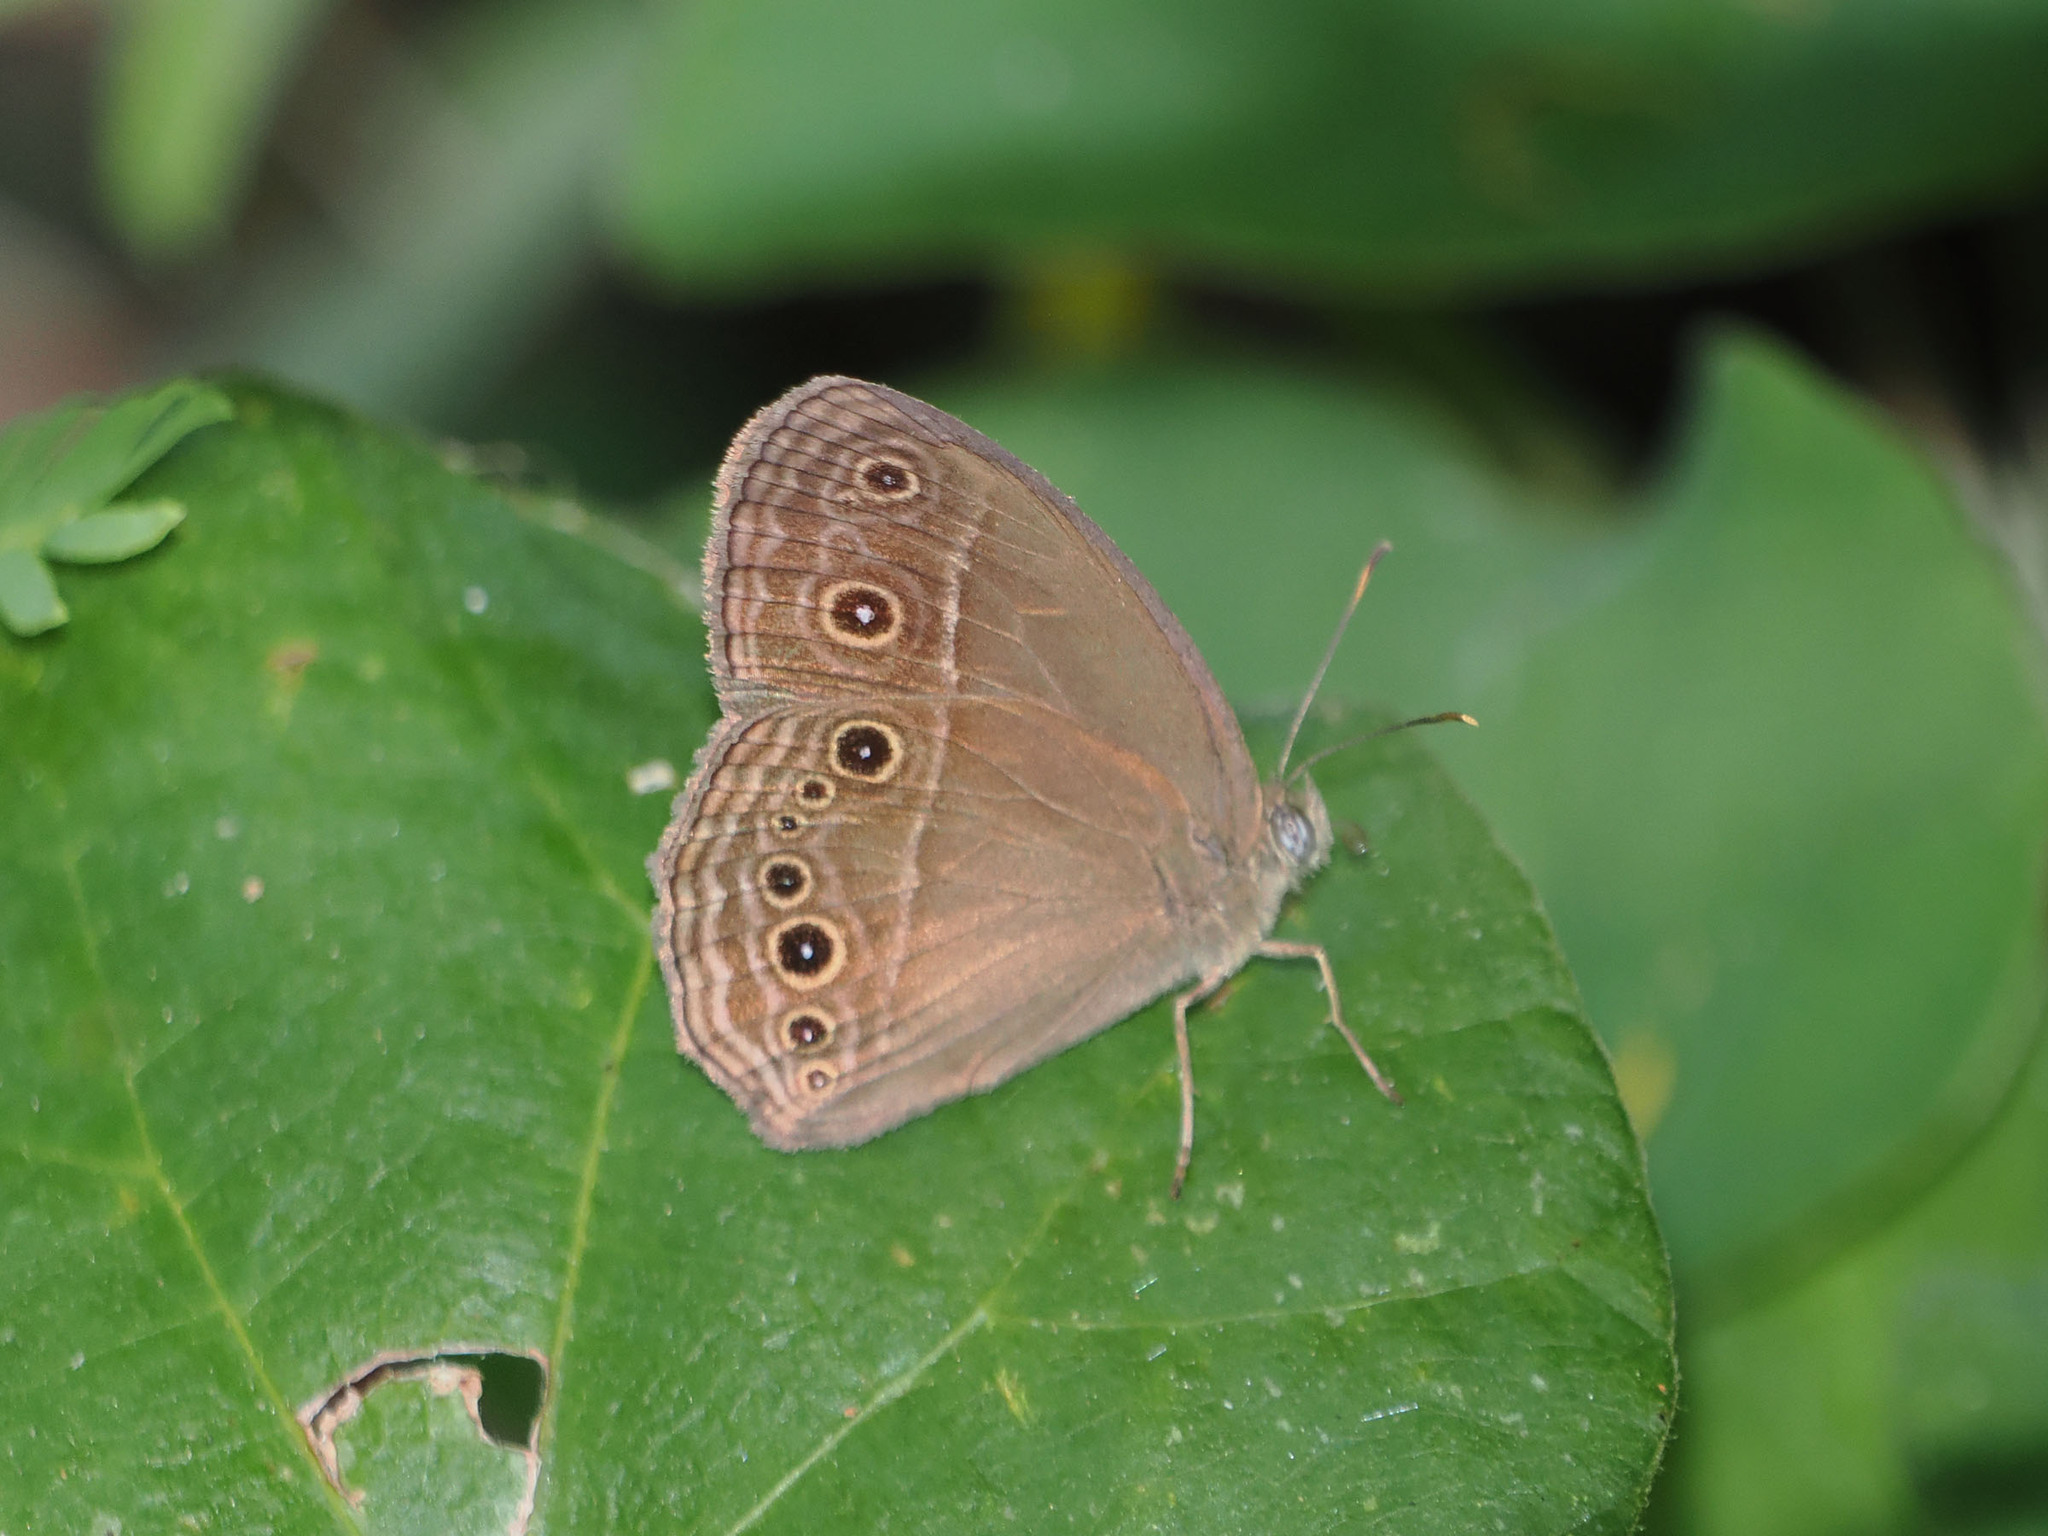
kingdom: Animalia
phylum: Arthropoda
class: Insecta
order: Lepidoptera
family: Nymphalidae
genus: Mycalesis
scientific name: Mycalesis tagala
